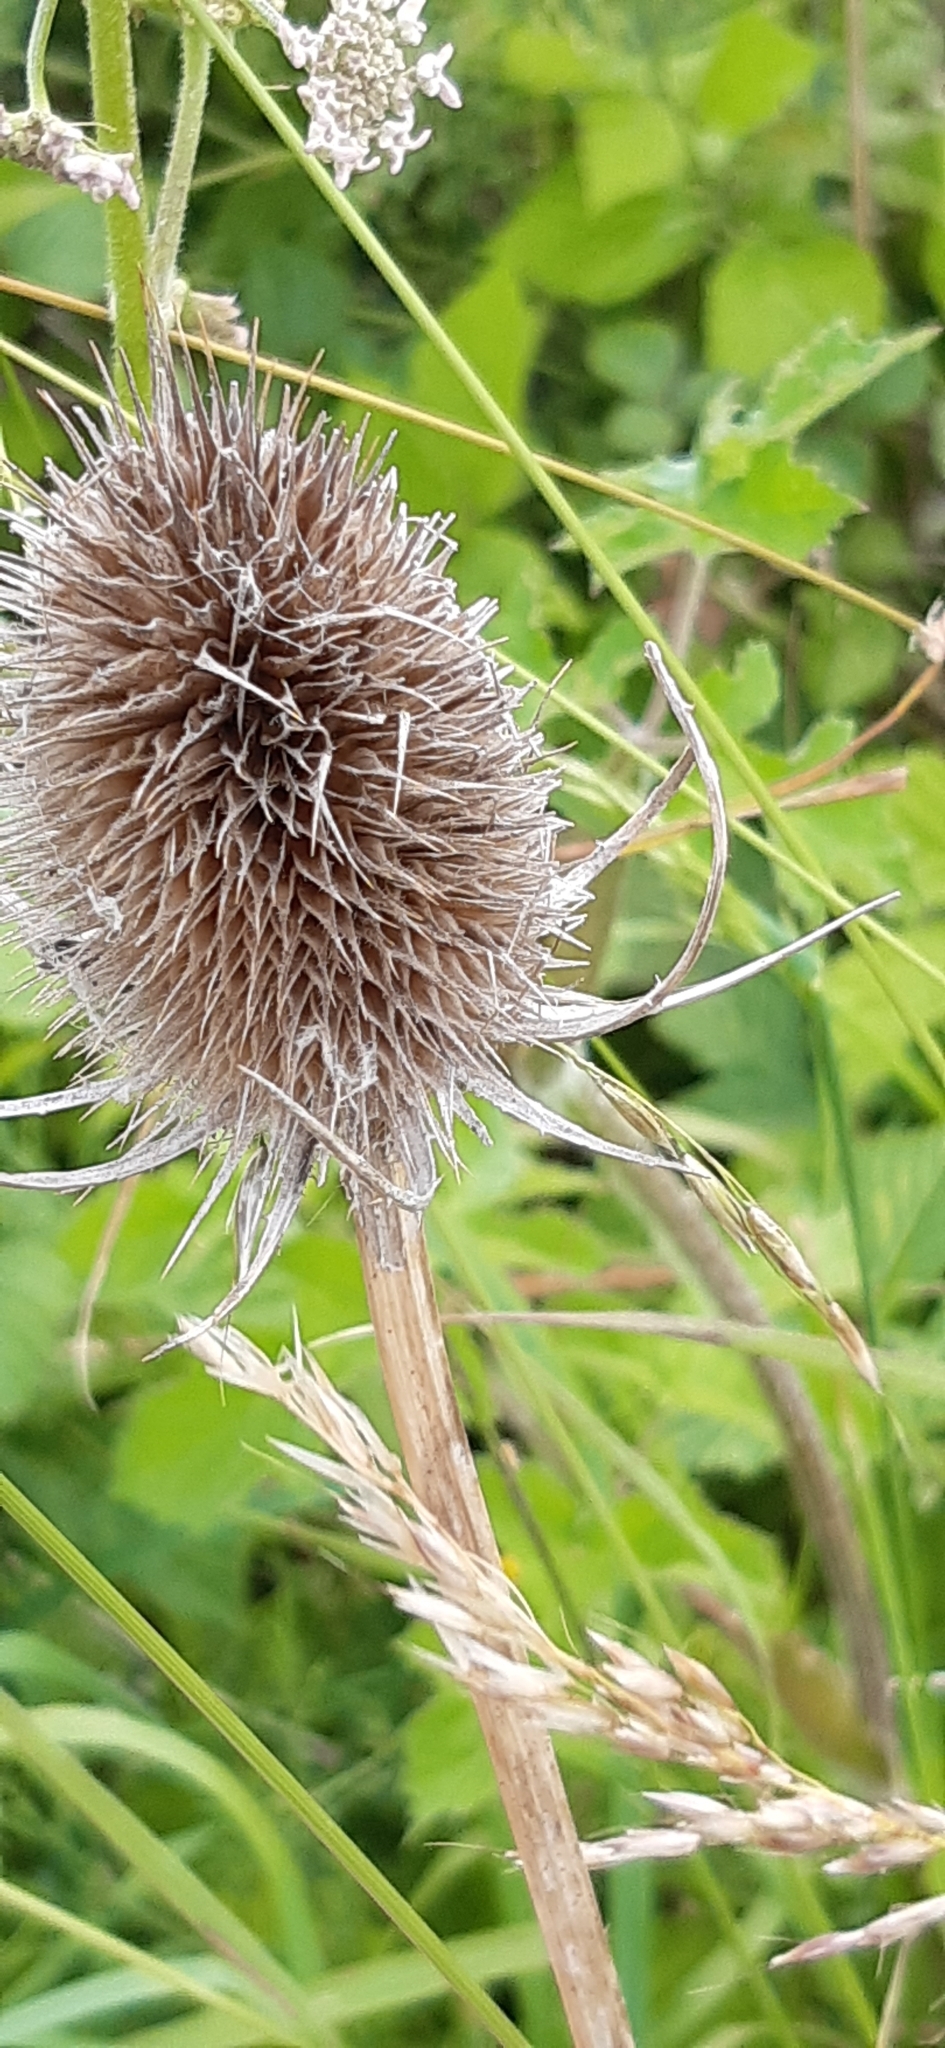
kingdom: Plantae
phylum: Tracheophyta
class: Magnoliopsida
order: Dipsacales
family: Caprifoliaceae
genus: Dipsacus
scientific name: Dipsacus fullonum
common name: Teasel
